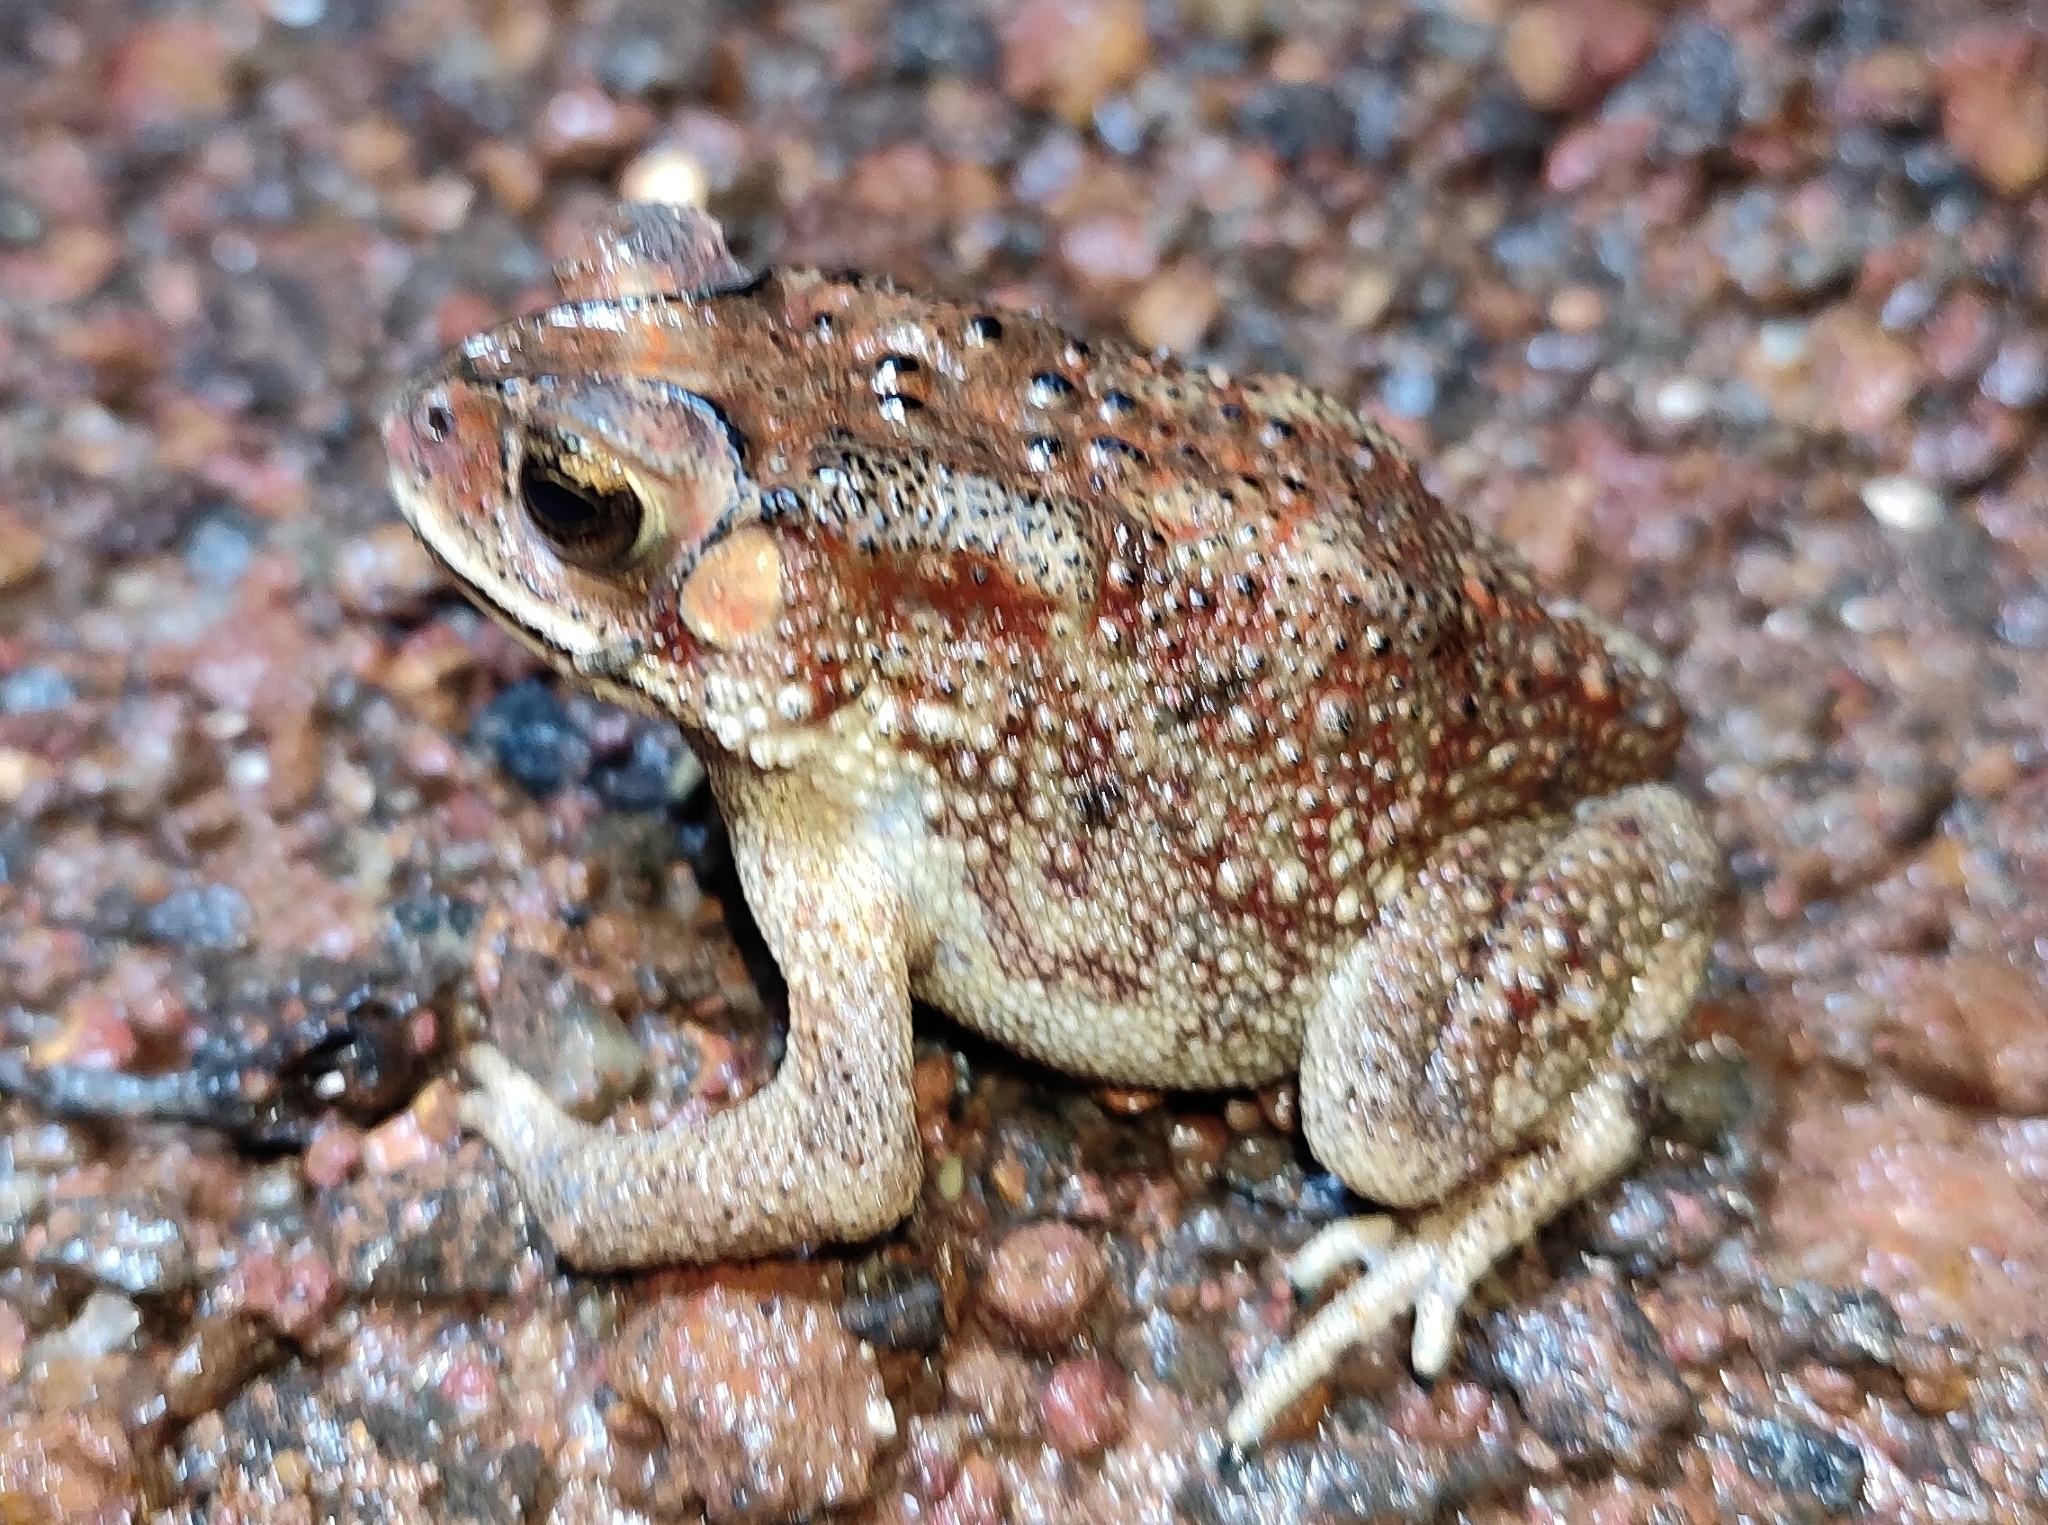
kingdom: Animalia
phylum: Chordata
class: Amphibia
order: Anura
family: Bufonidae
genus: Duttaphrynus
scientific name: Duttaphrynus melanostictus
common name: Common sunda toad
